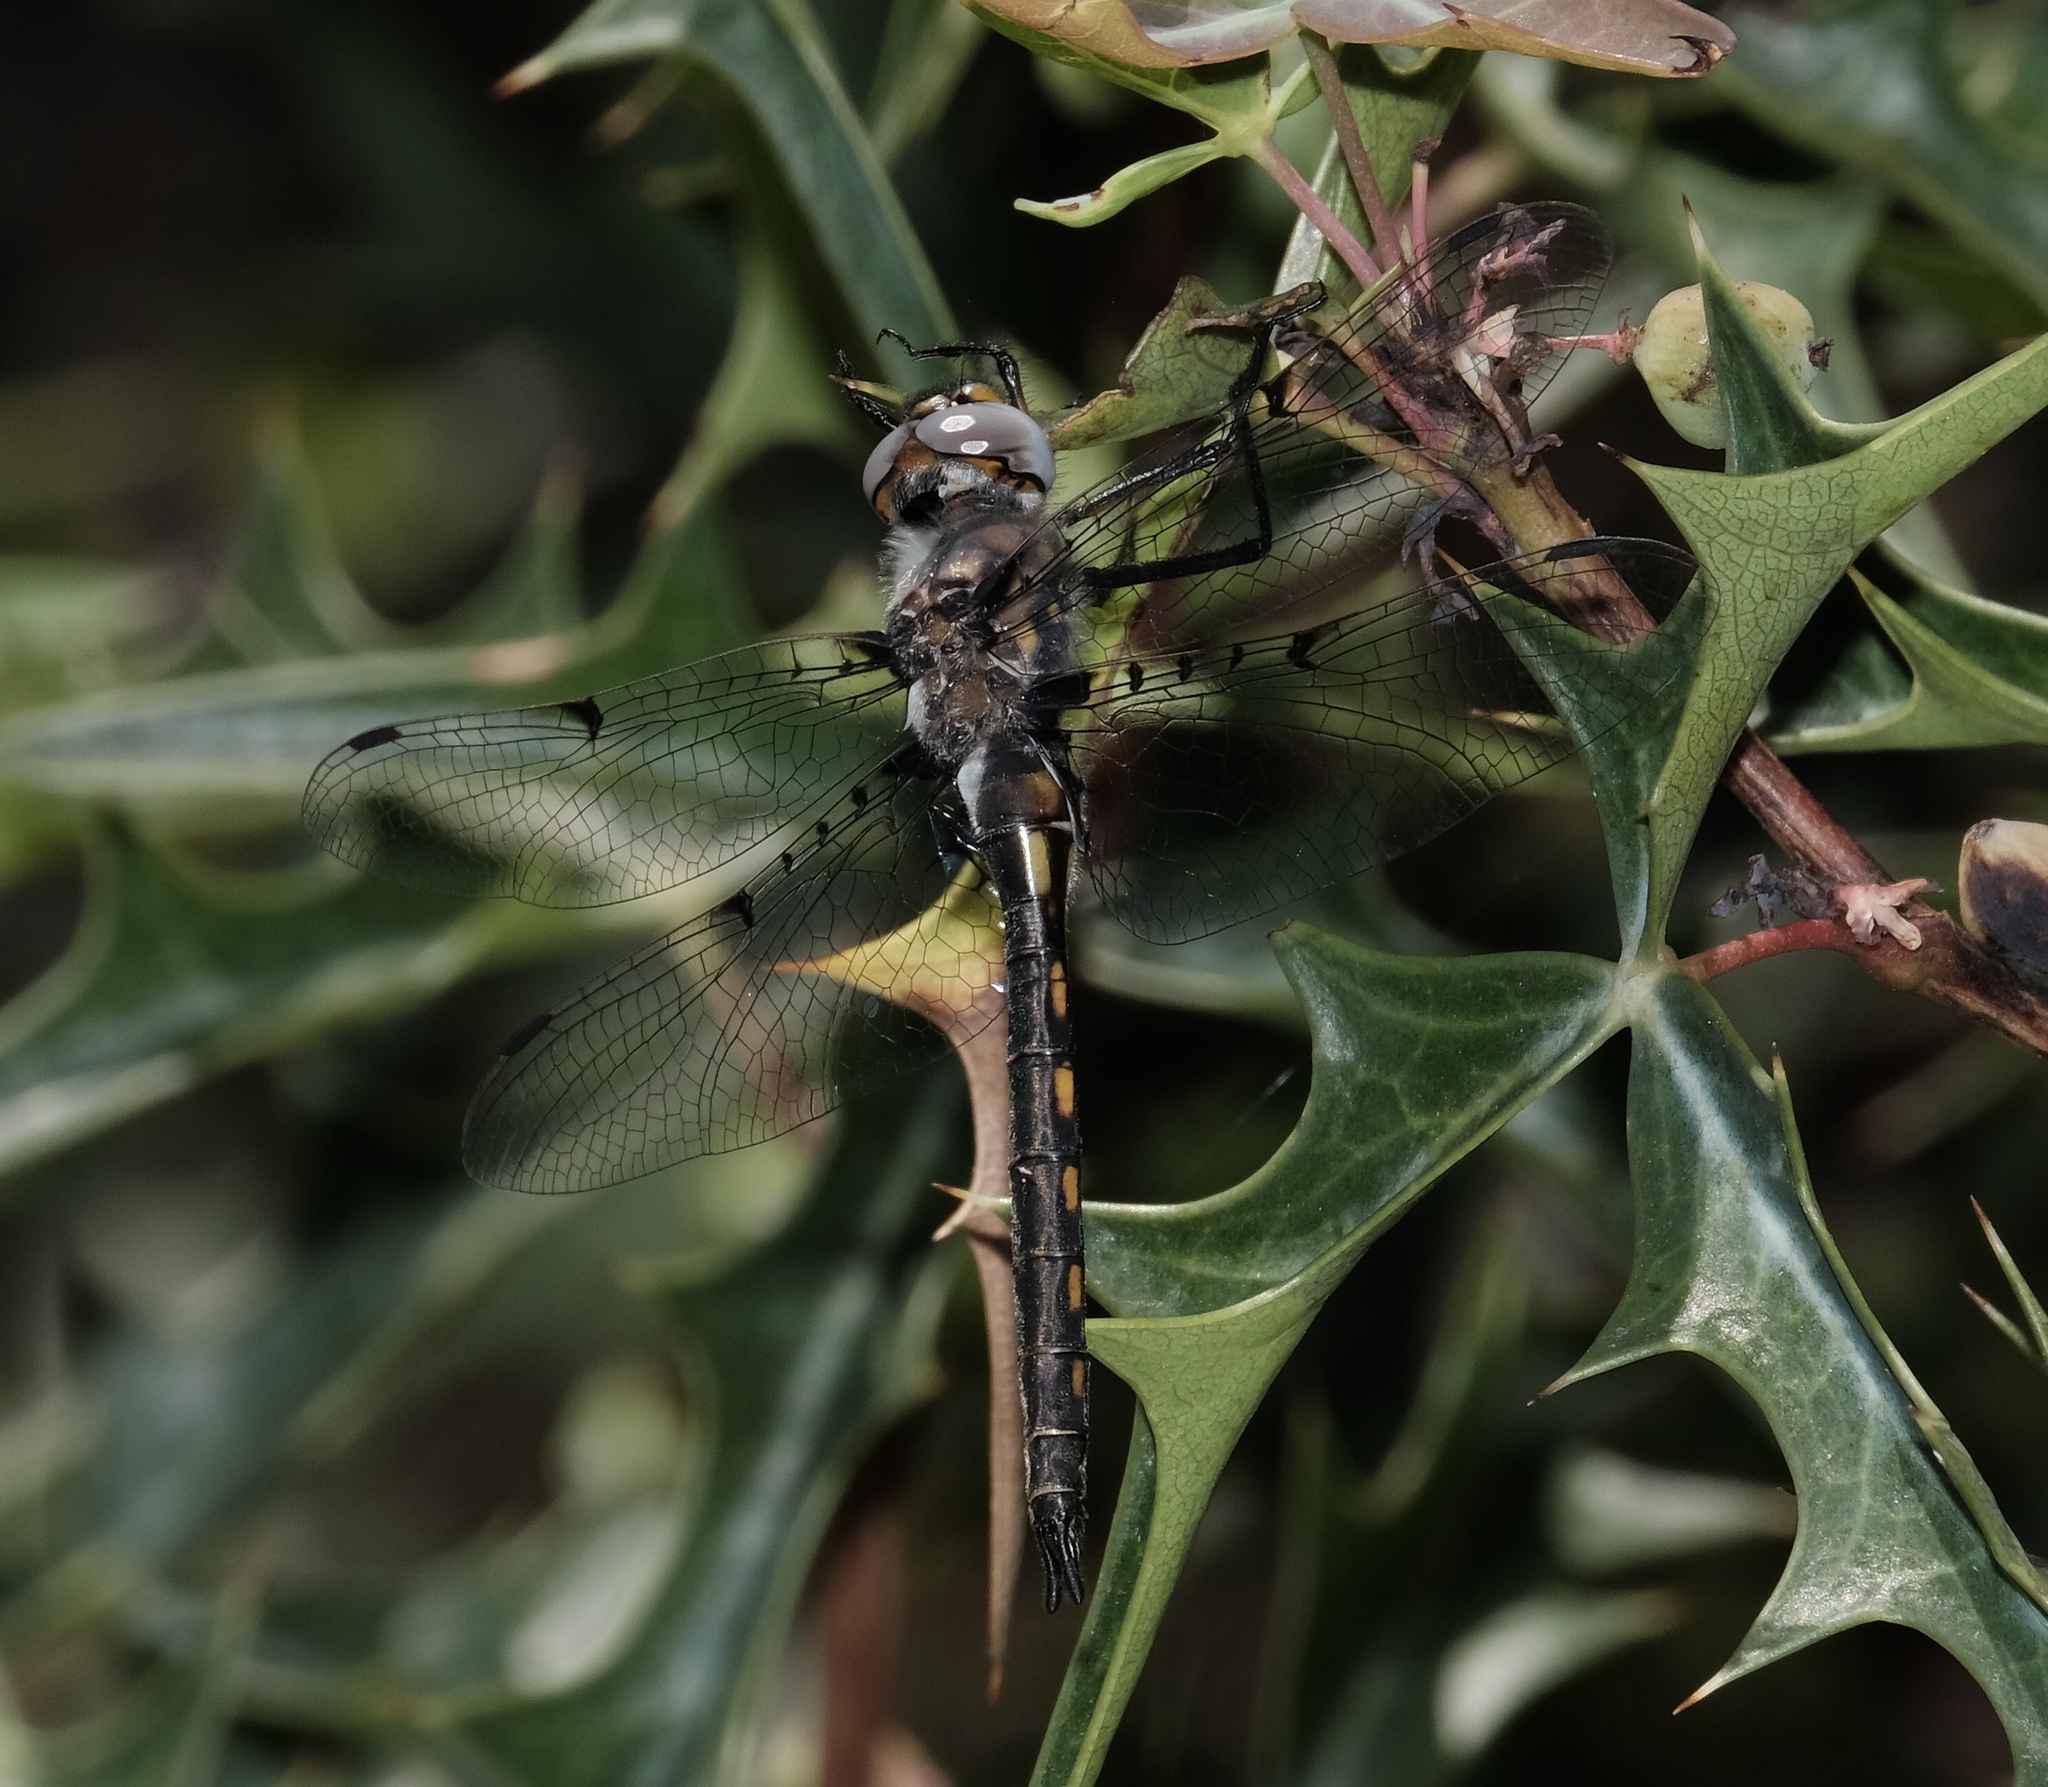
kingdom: Animalia
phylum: Arthropoda
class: Insecta
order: Odonata
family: Corduliidae
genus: Epitheca
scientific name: Epitheca petechialis
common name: Dot-winged baskettail
